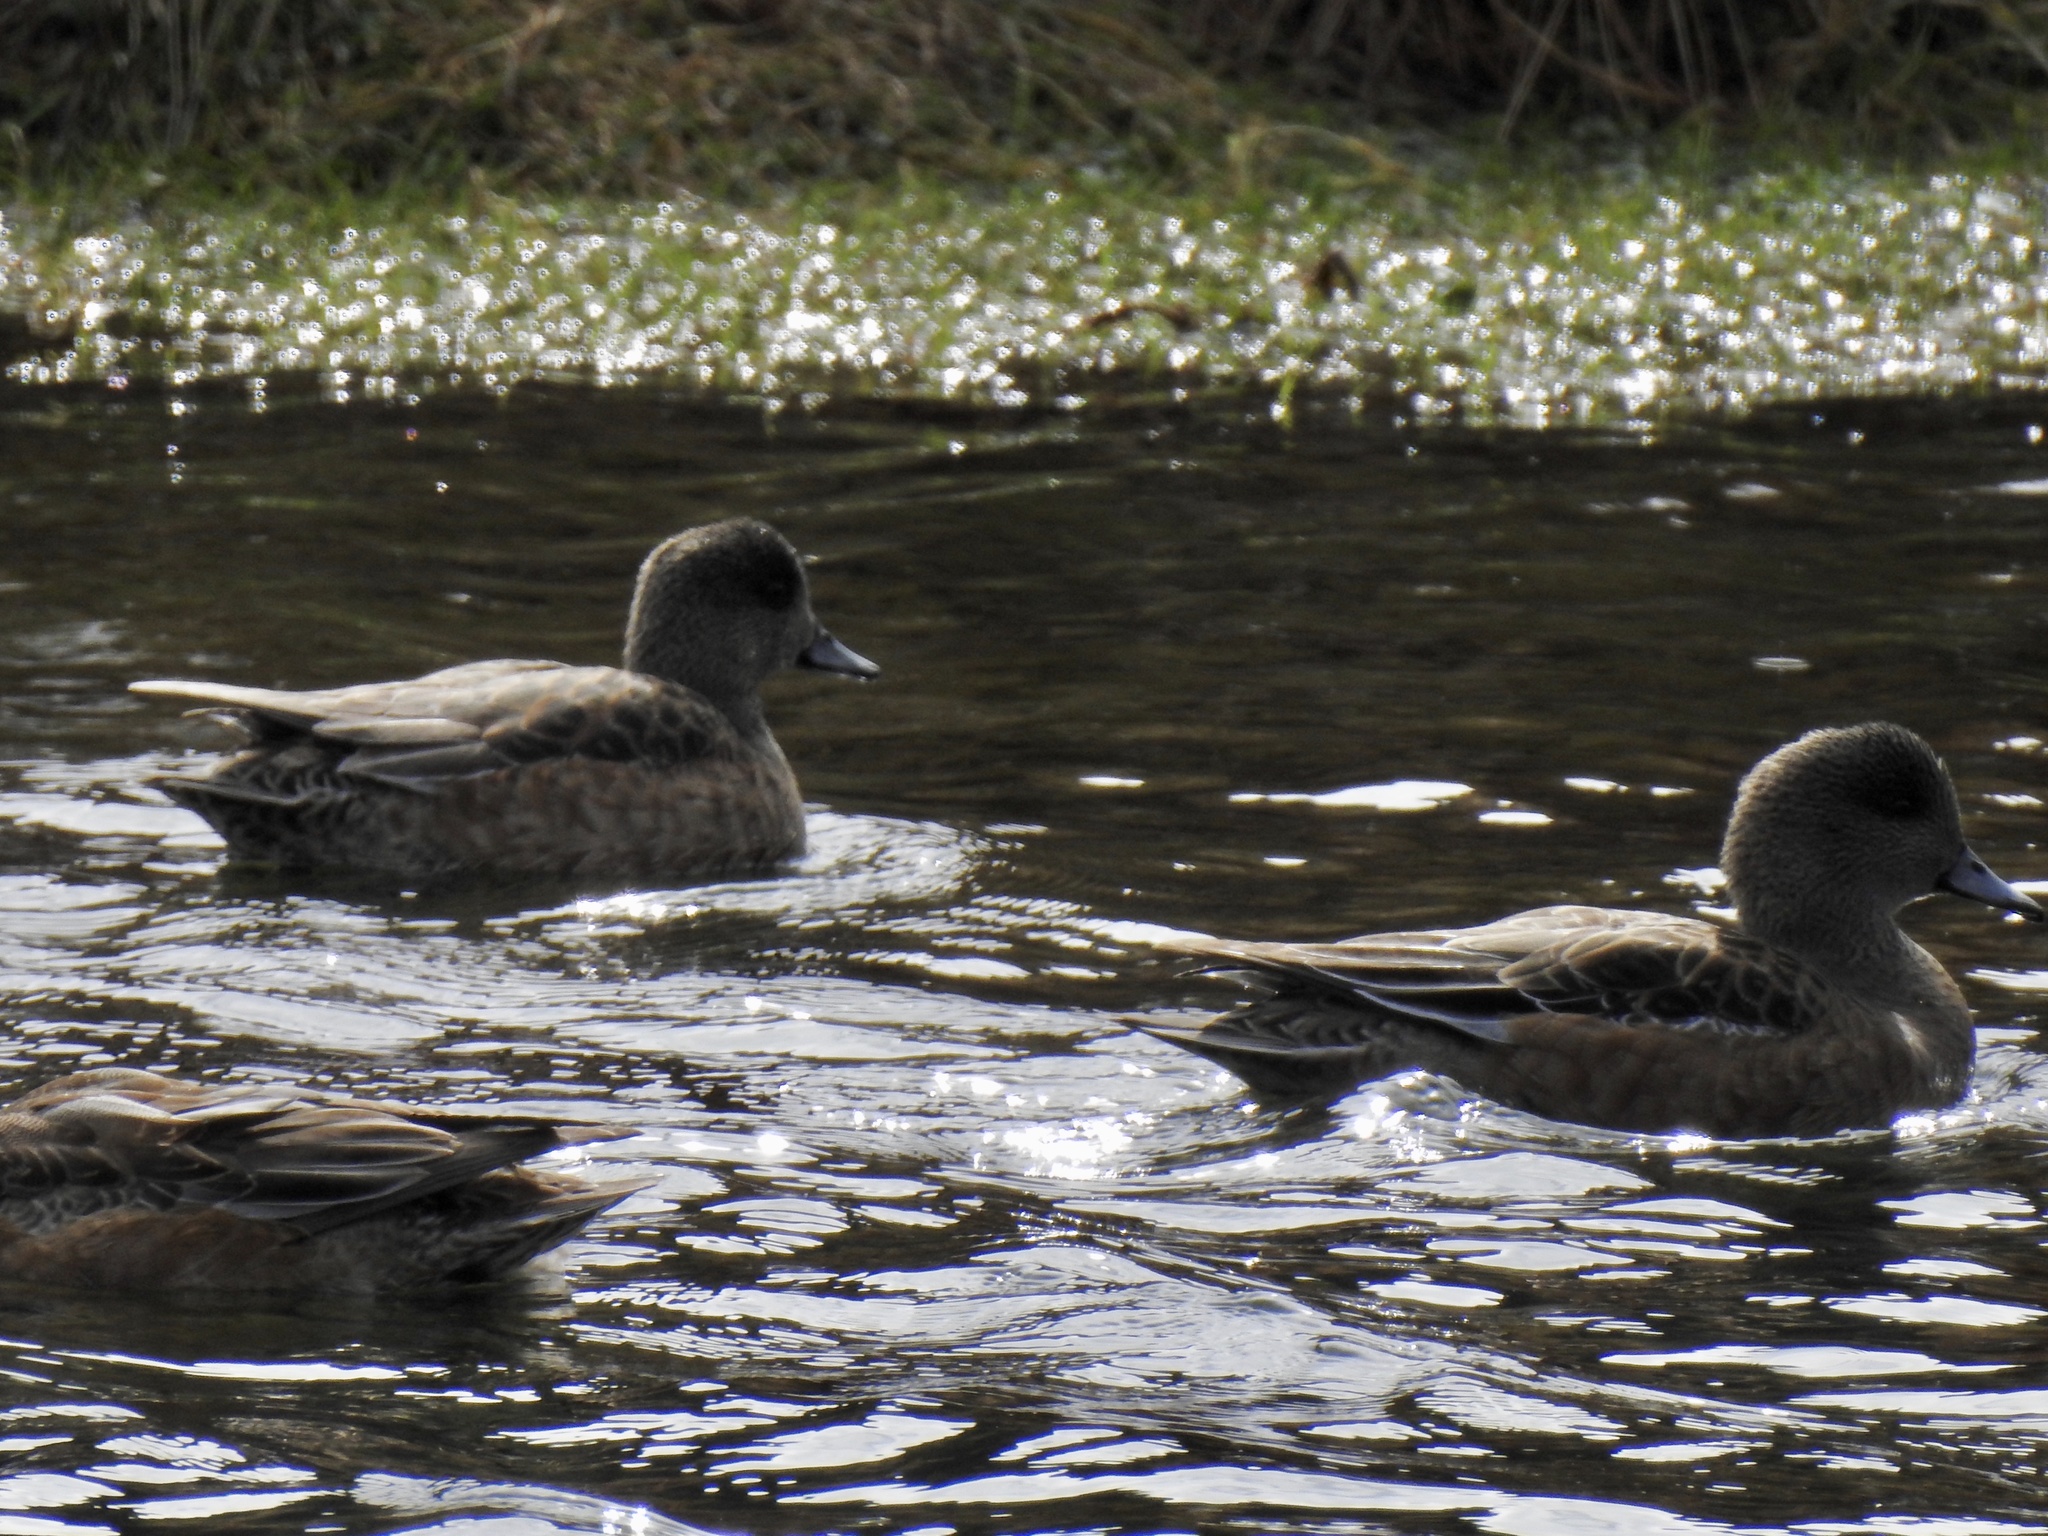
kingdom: Animalia
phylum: Chordata
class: Aves
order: Anseriformes
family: Anatidae
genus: Mareca
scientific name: Mareca americana
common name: American wigeon
